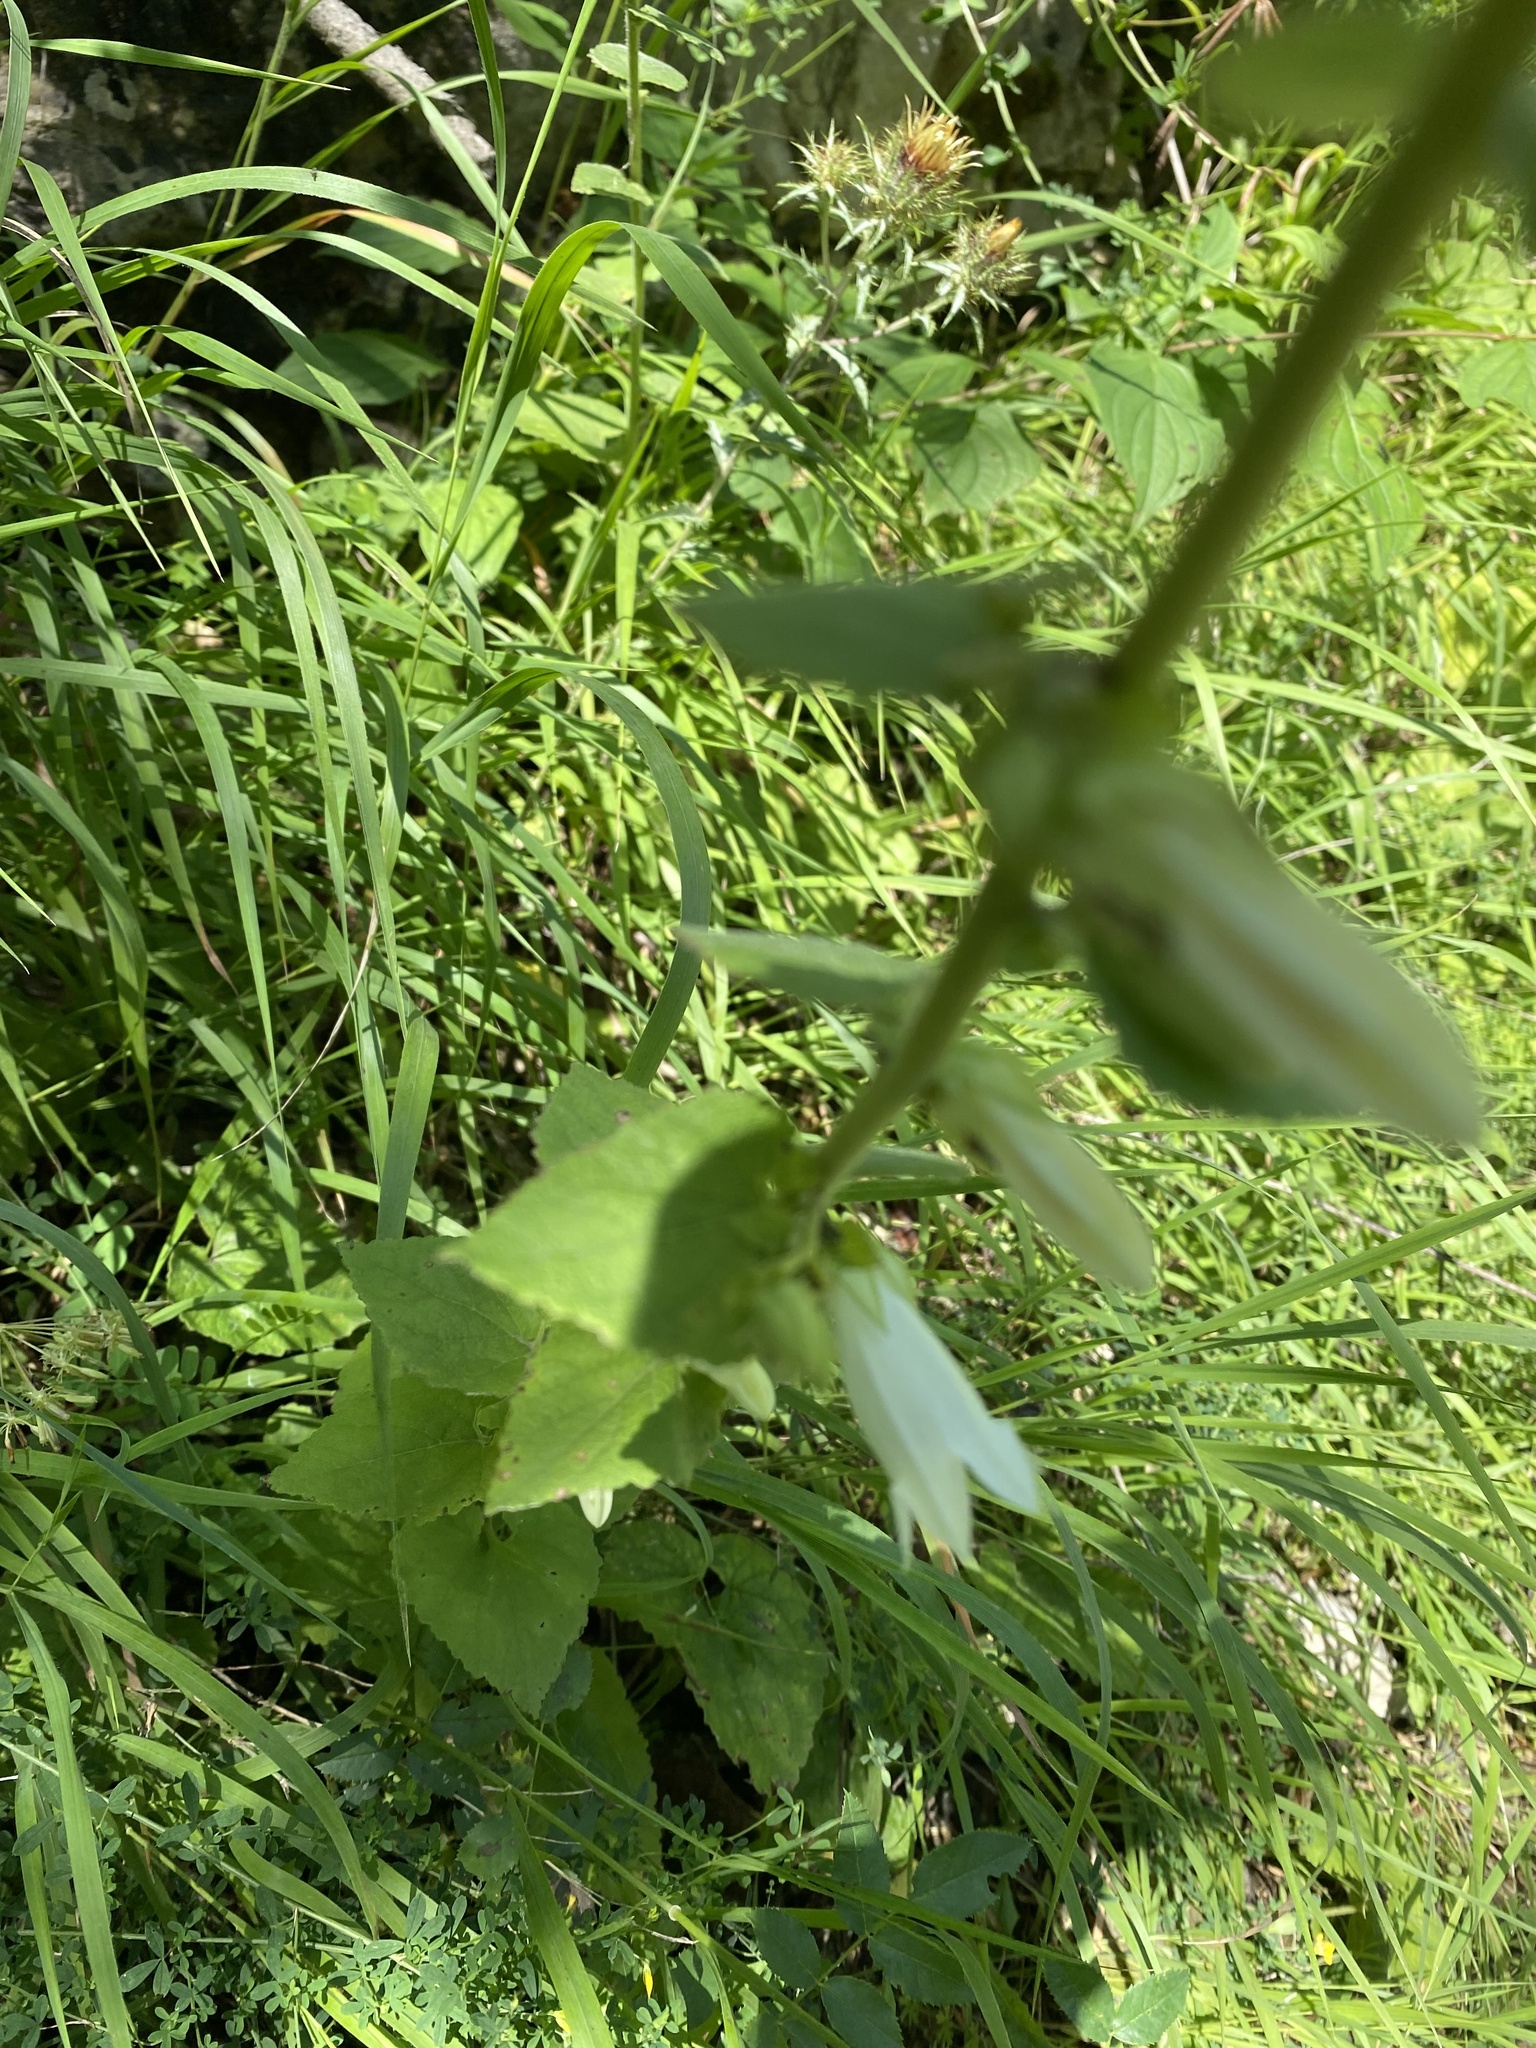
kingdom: Plantae
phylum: Tracheophyta
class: Magnoliopsida
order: Asterales
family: Campanulaceae
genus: Campanula
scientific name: Campanula alliariifolia
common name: Cornish bellflower
